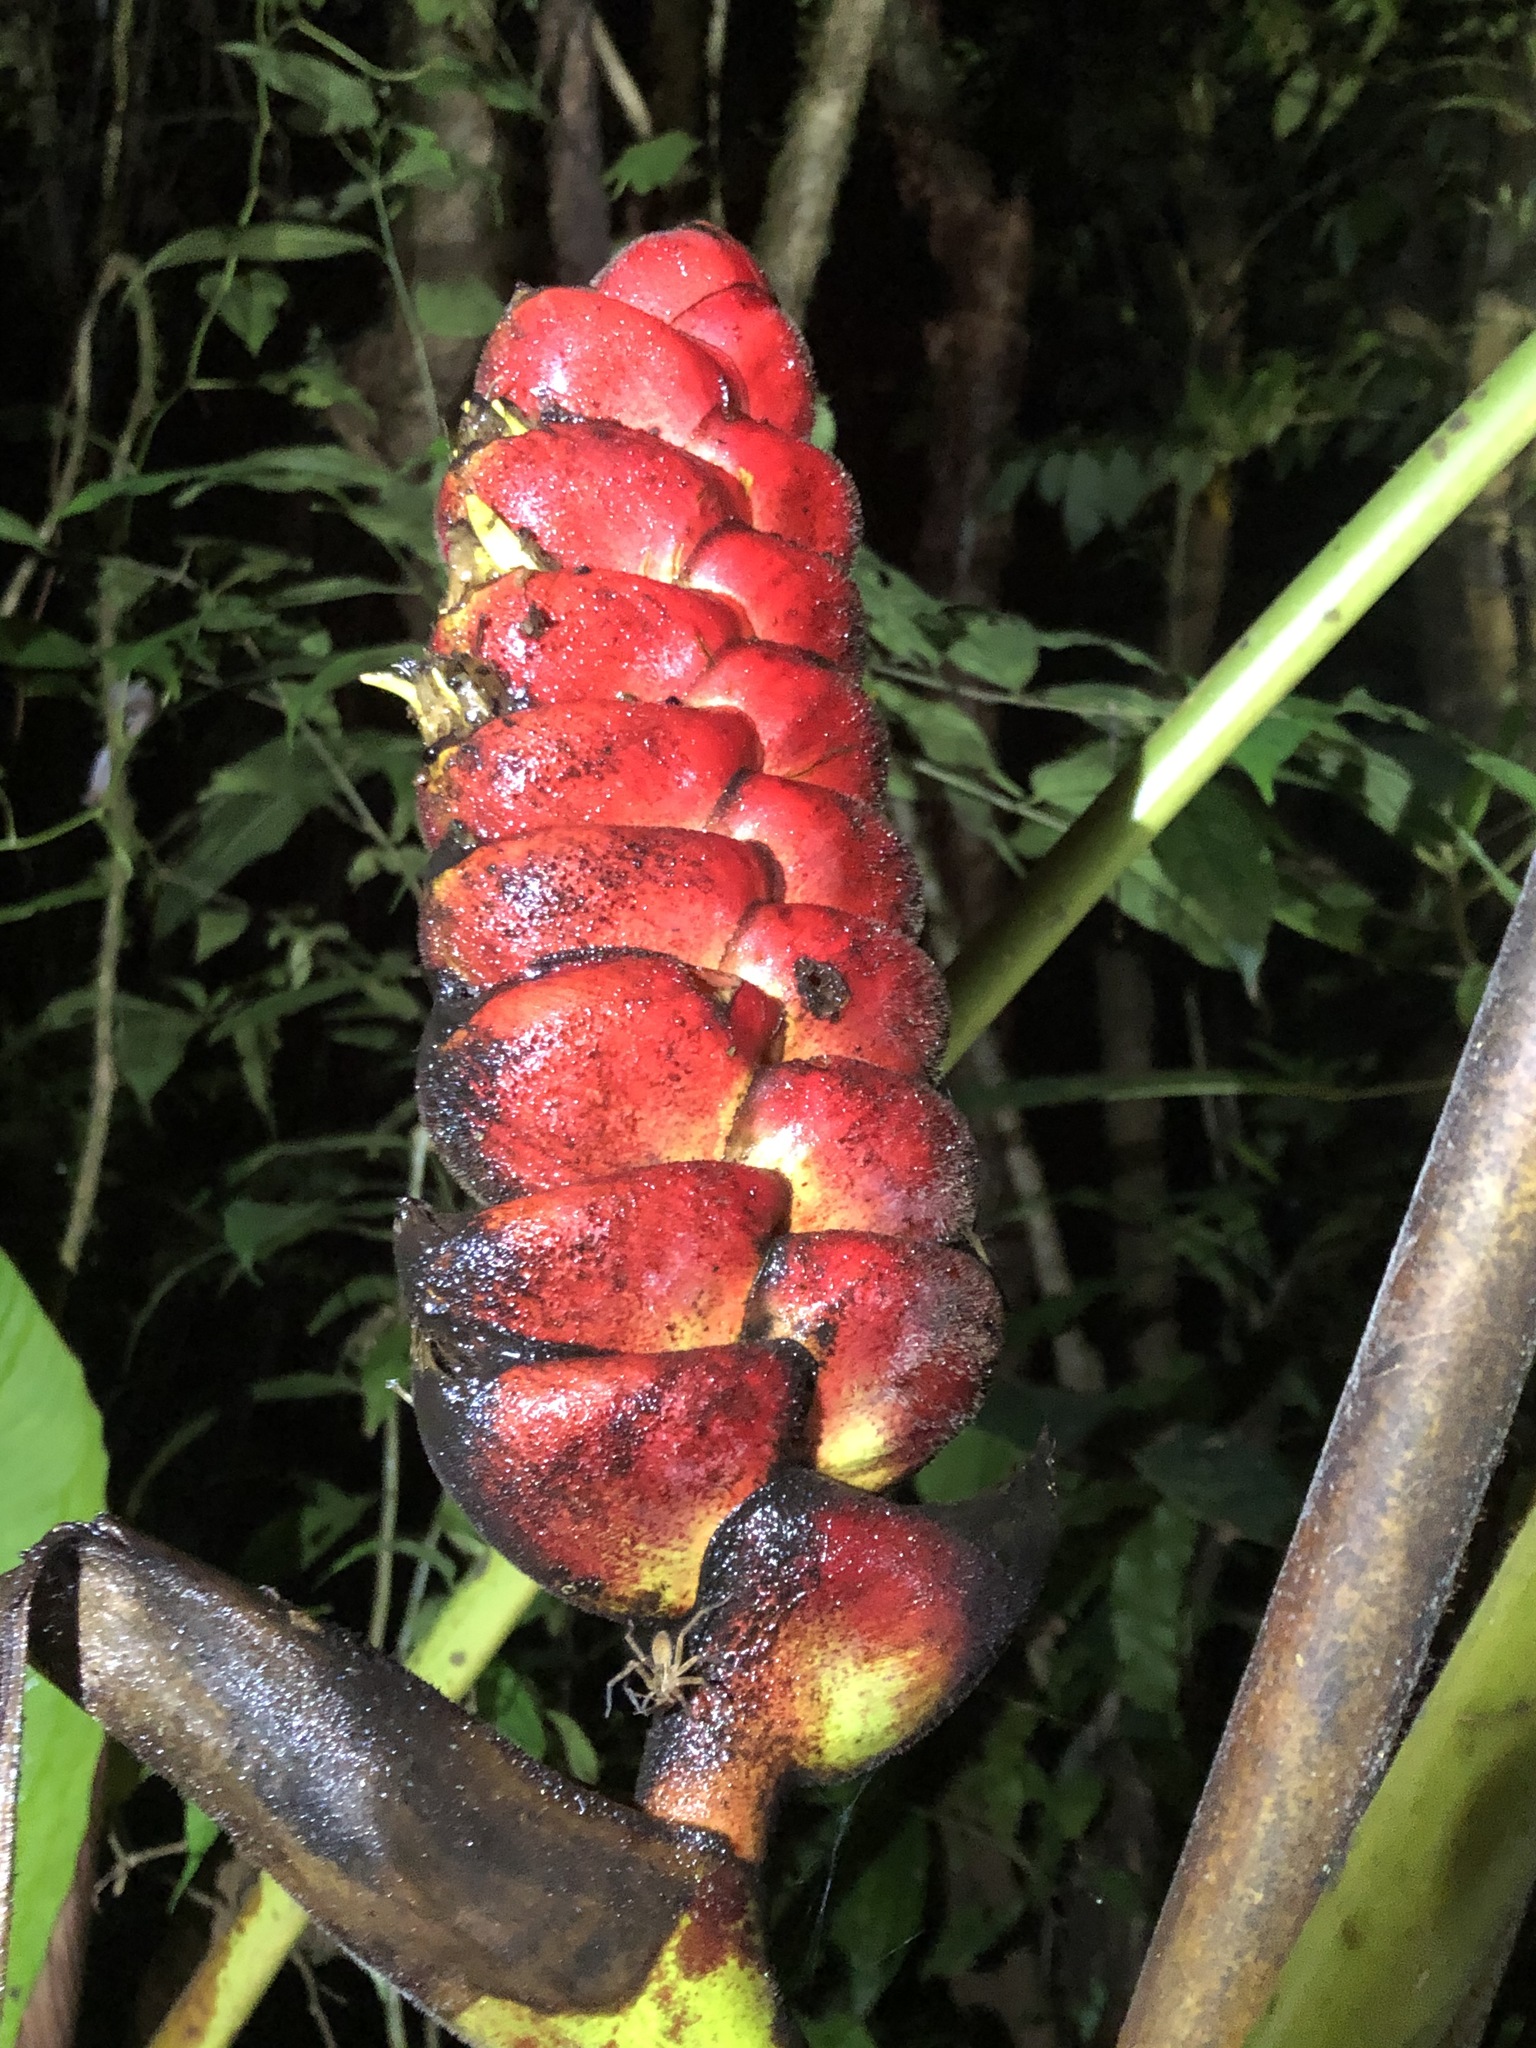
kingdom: Plantae
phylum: Tracheophyta
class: Liliopsida
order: Zingiberales
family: Heliconiaceae
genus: Heliconia
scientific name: Heliconia imbricata
